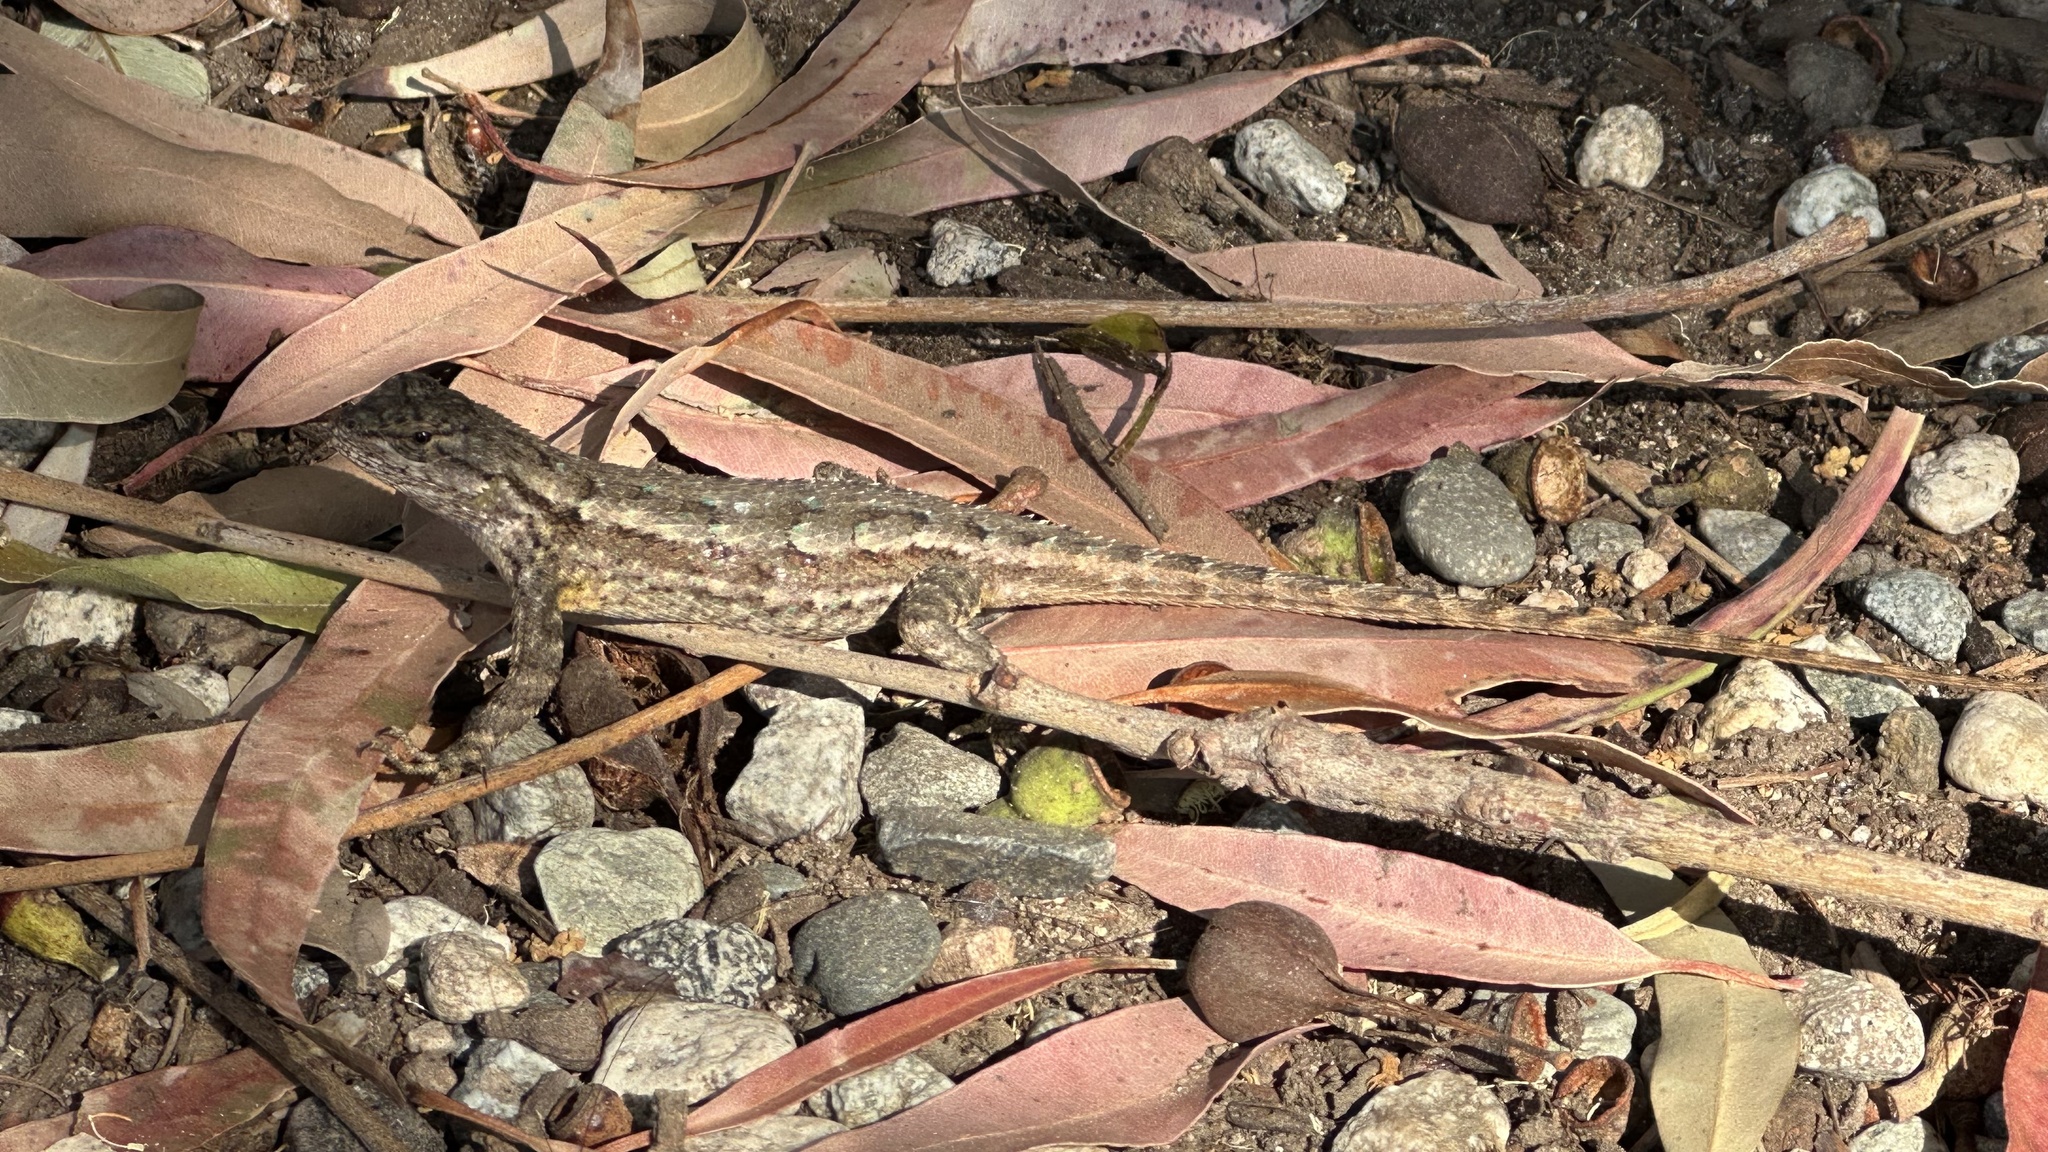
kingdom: Animalia
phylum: Chordata
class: Squamata
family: Phrynosomatidae
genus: Sceloporus
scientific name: Sceloporus occidentalis
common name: Western fence lizard
